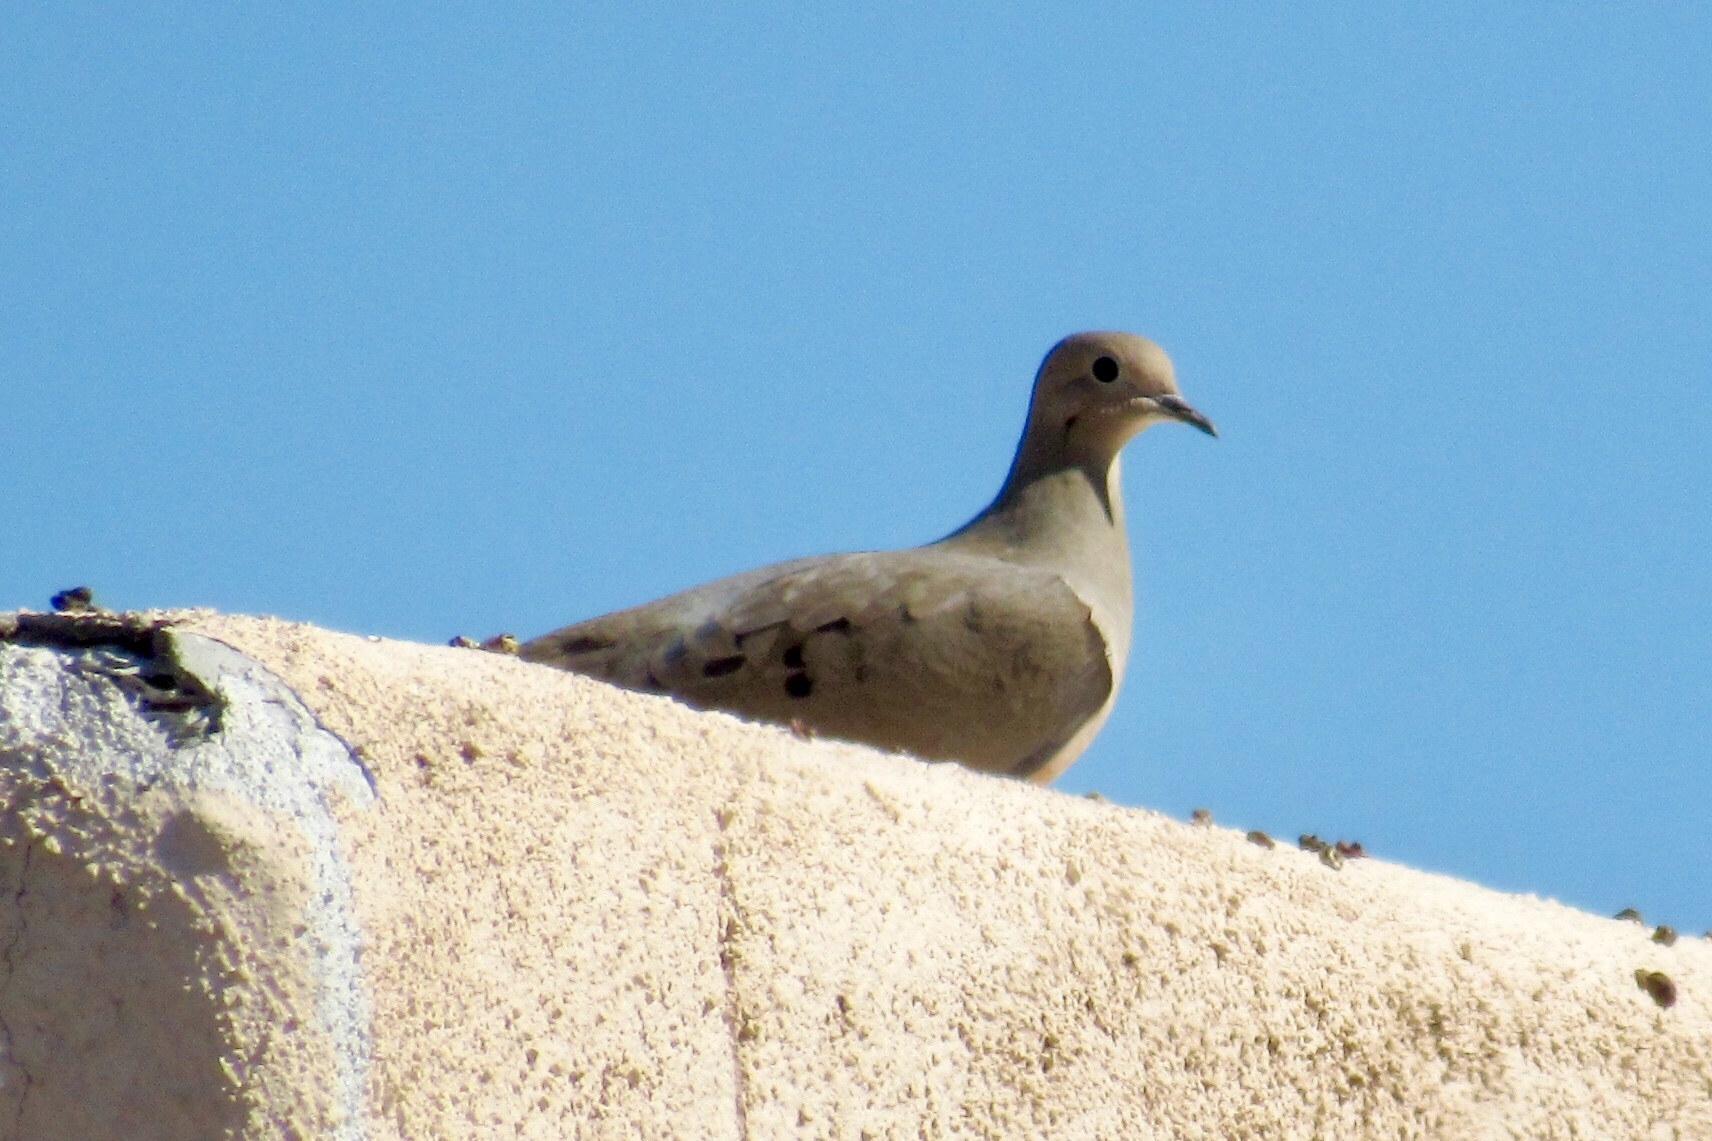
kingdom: Animalia
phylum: Chordata
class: Aves
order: Columbiformes
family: Columbidae
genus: Zenaida
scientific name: Zenaida macroura
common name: Mourning dove
